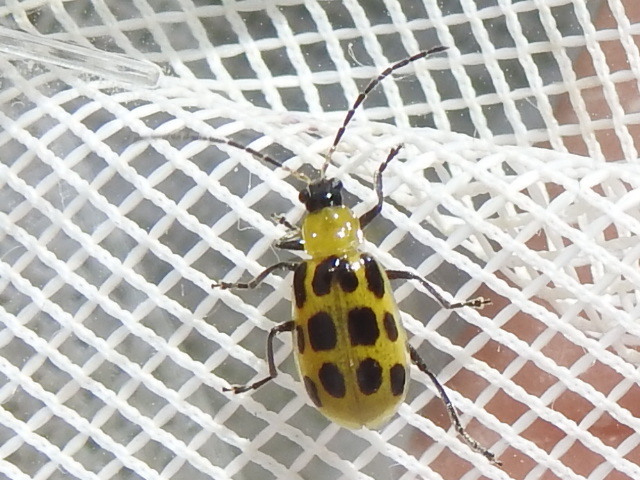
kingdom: Animalia
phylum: Arthropoda
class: Insecta
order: Coleoptera
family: Chrysomelidae
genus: Diabrotica
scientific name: Diabrotica undecimpunctata
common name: Spotted cucumber beetle
